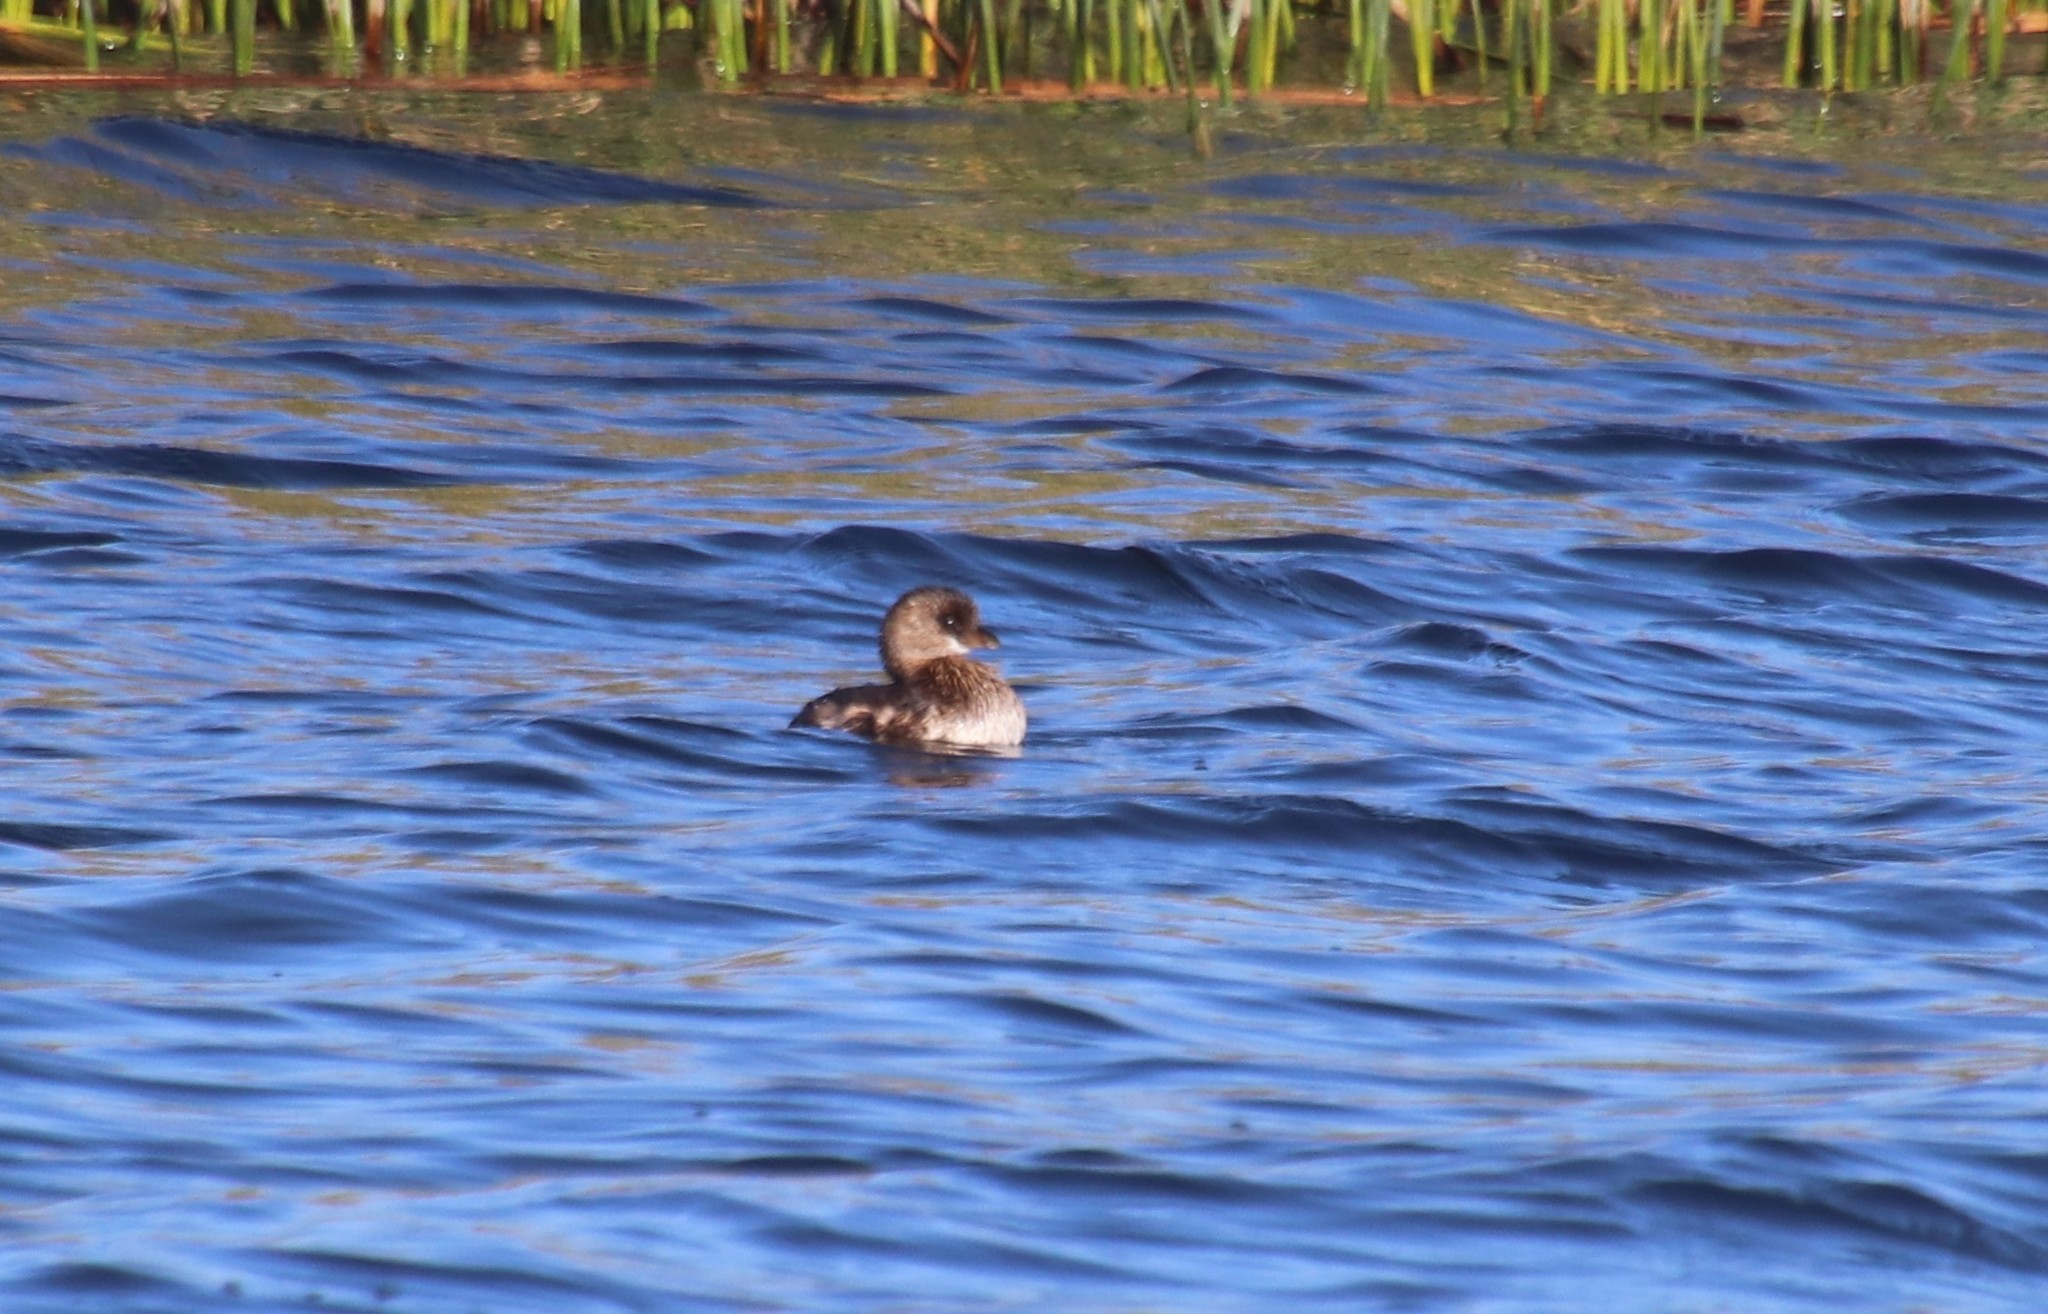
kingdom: Animalia
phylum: Chordata
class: Aves
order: Podicipediformes
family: Podicipedidae
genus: Podilymbus
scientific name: Podilymbus podiceps
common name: Pied-billed grebe
